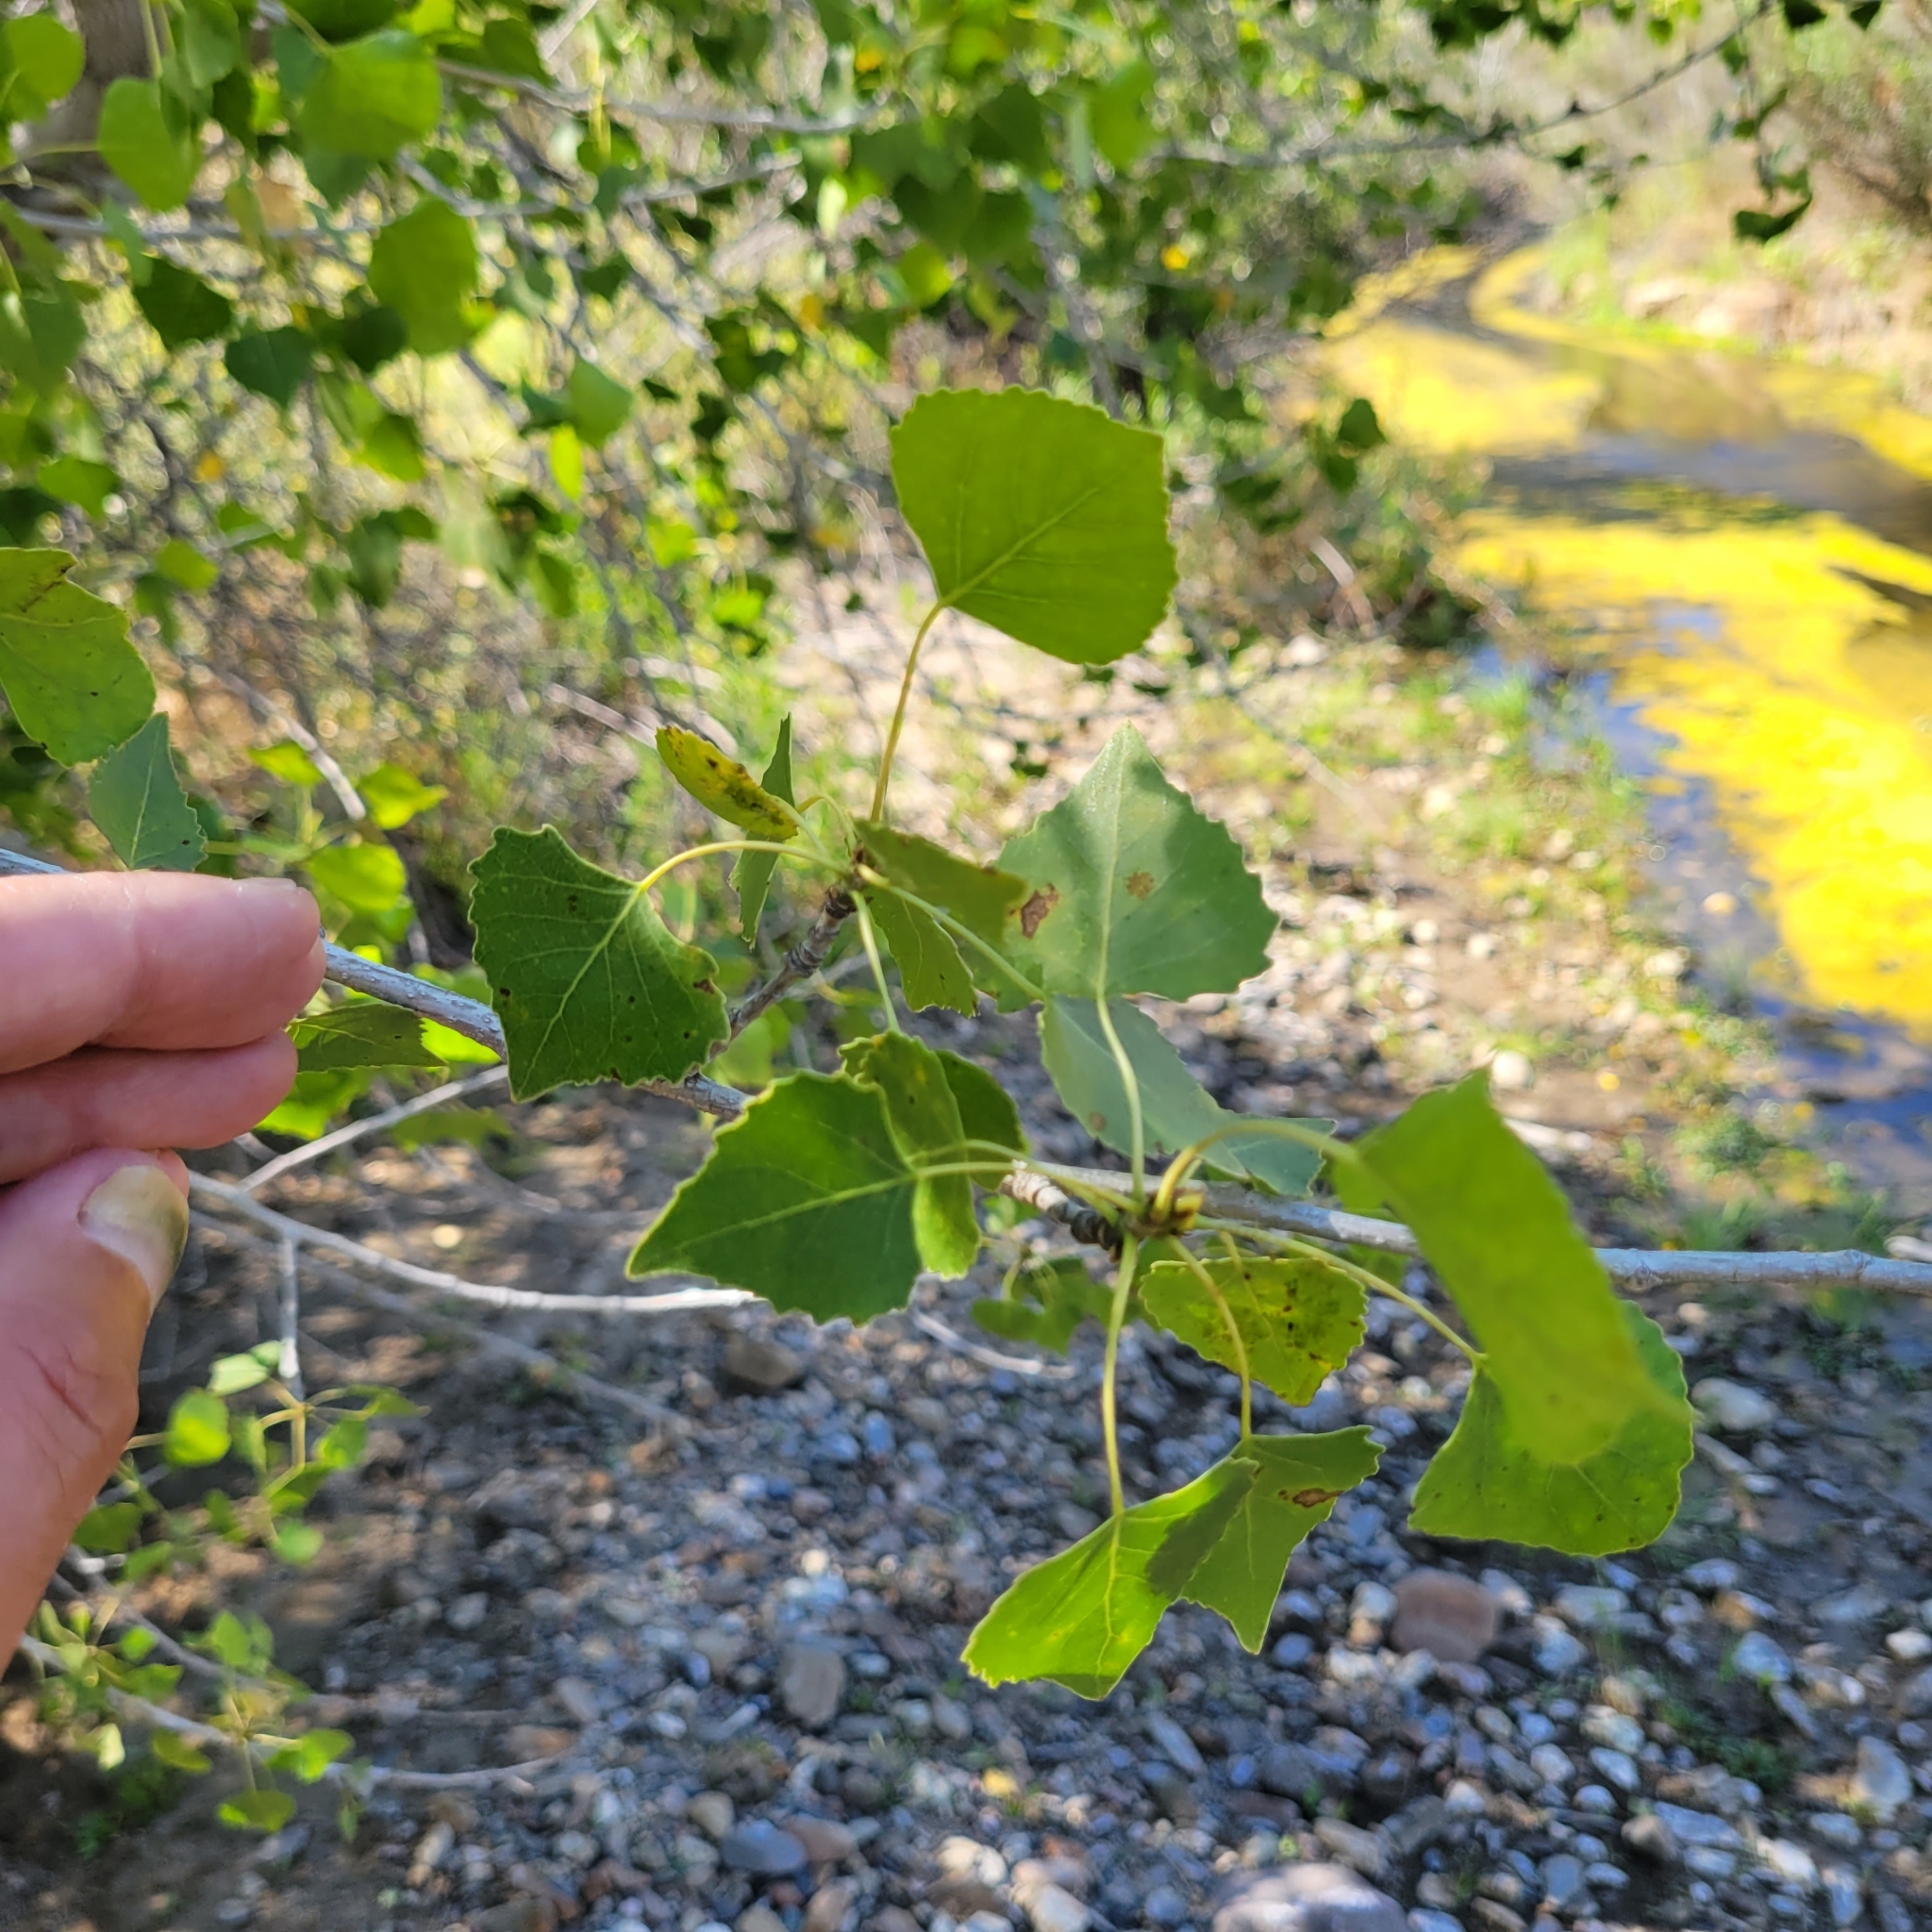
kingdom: Plantae
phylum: Tracheophyta
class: Magnoliopsida
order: Malpighiales
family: Salicaceae
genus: Populus
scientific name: Populus fremontii
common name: Fremont's cottonwood
